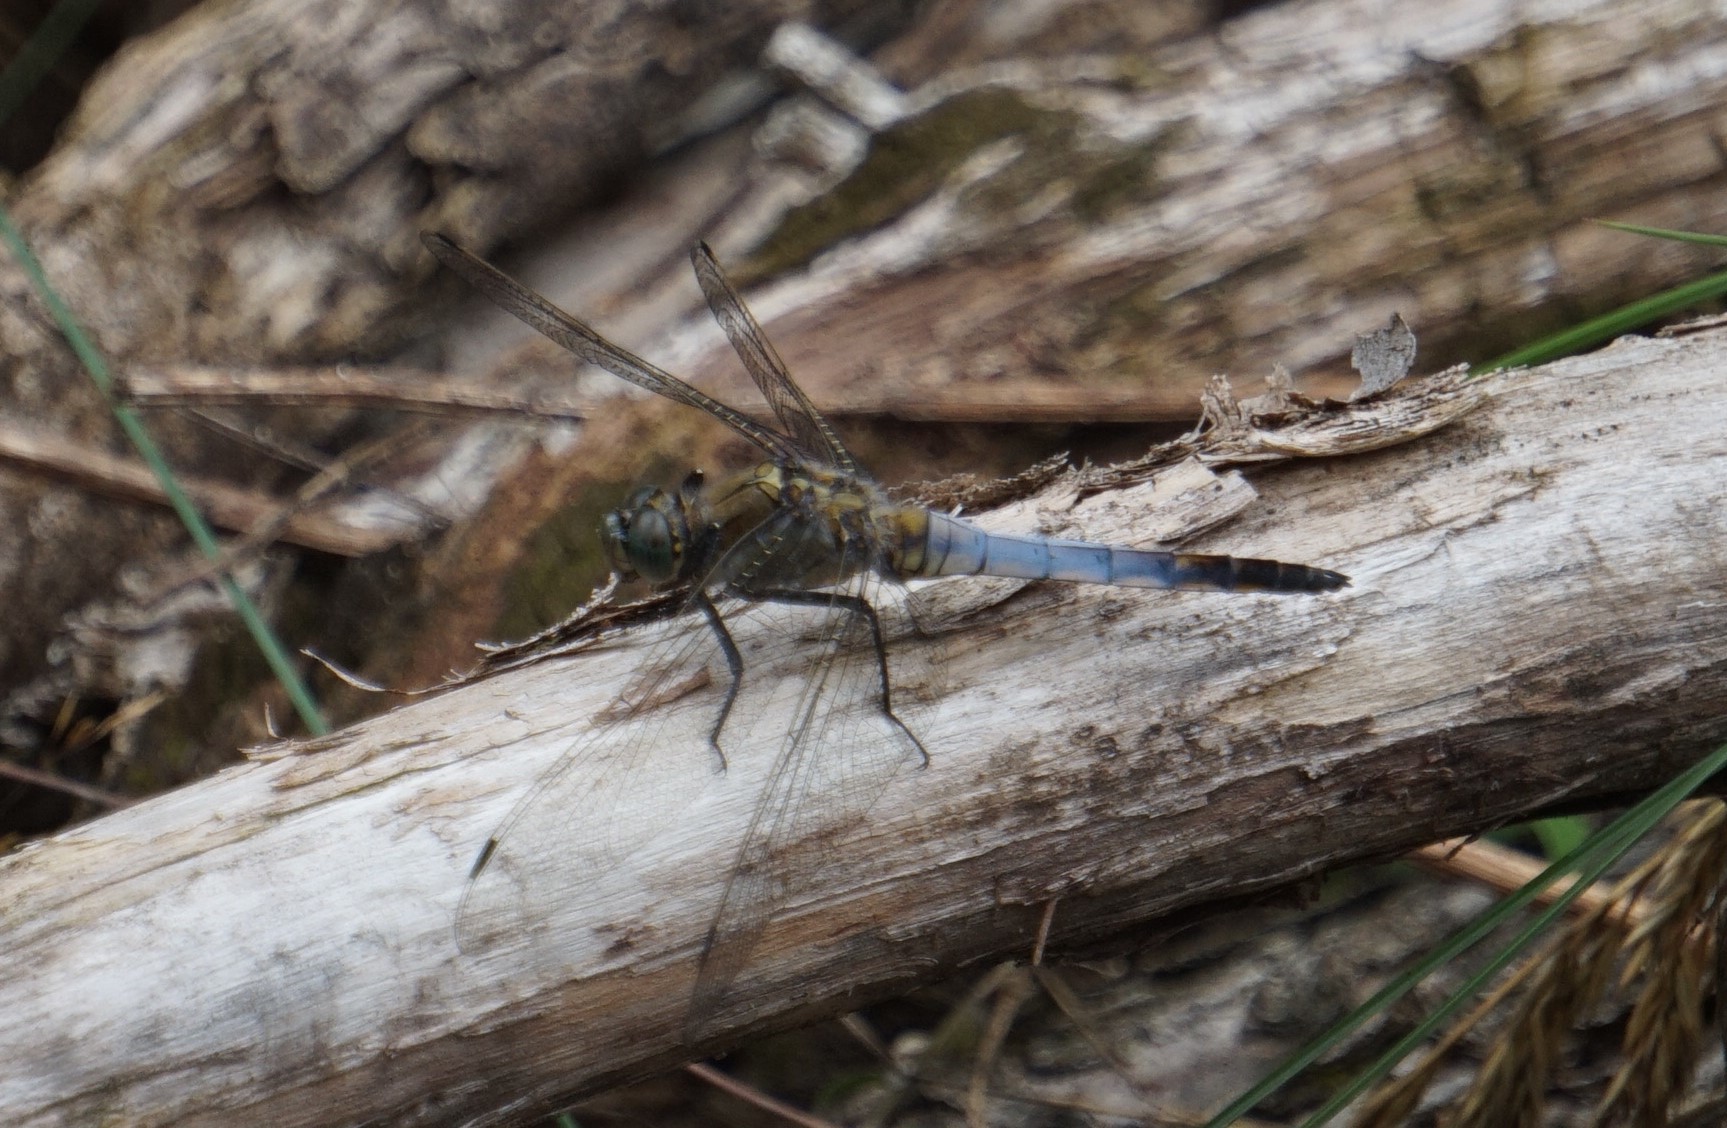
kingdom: Animalia
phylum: Arthropoda
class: Insecta
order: Odonata
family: Libellulidae
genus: Orthetrum
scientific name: Orthetrum cancellatum
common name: Black-tailed skimmer
